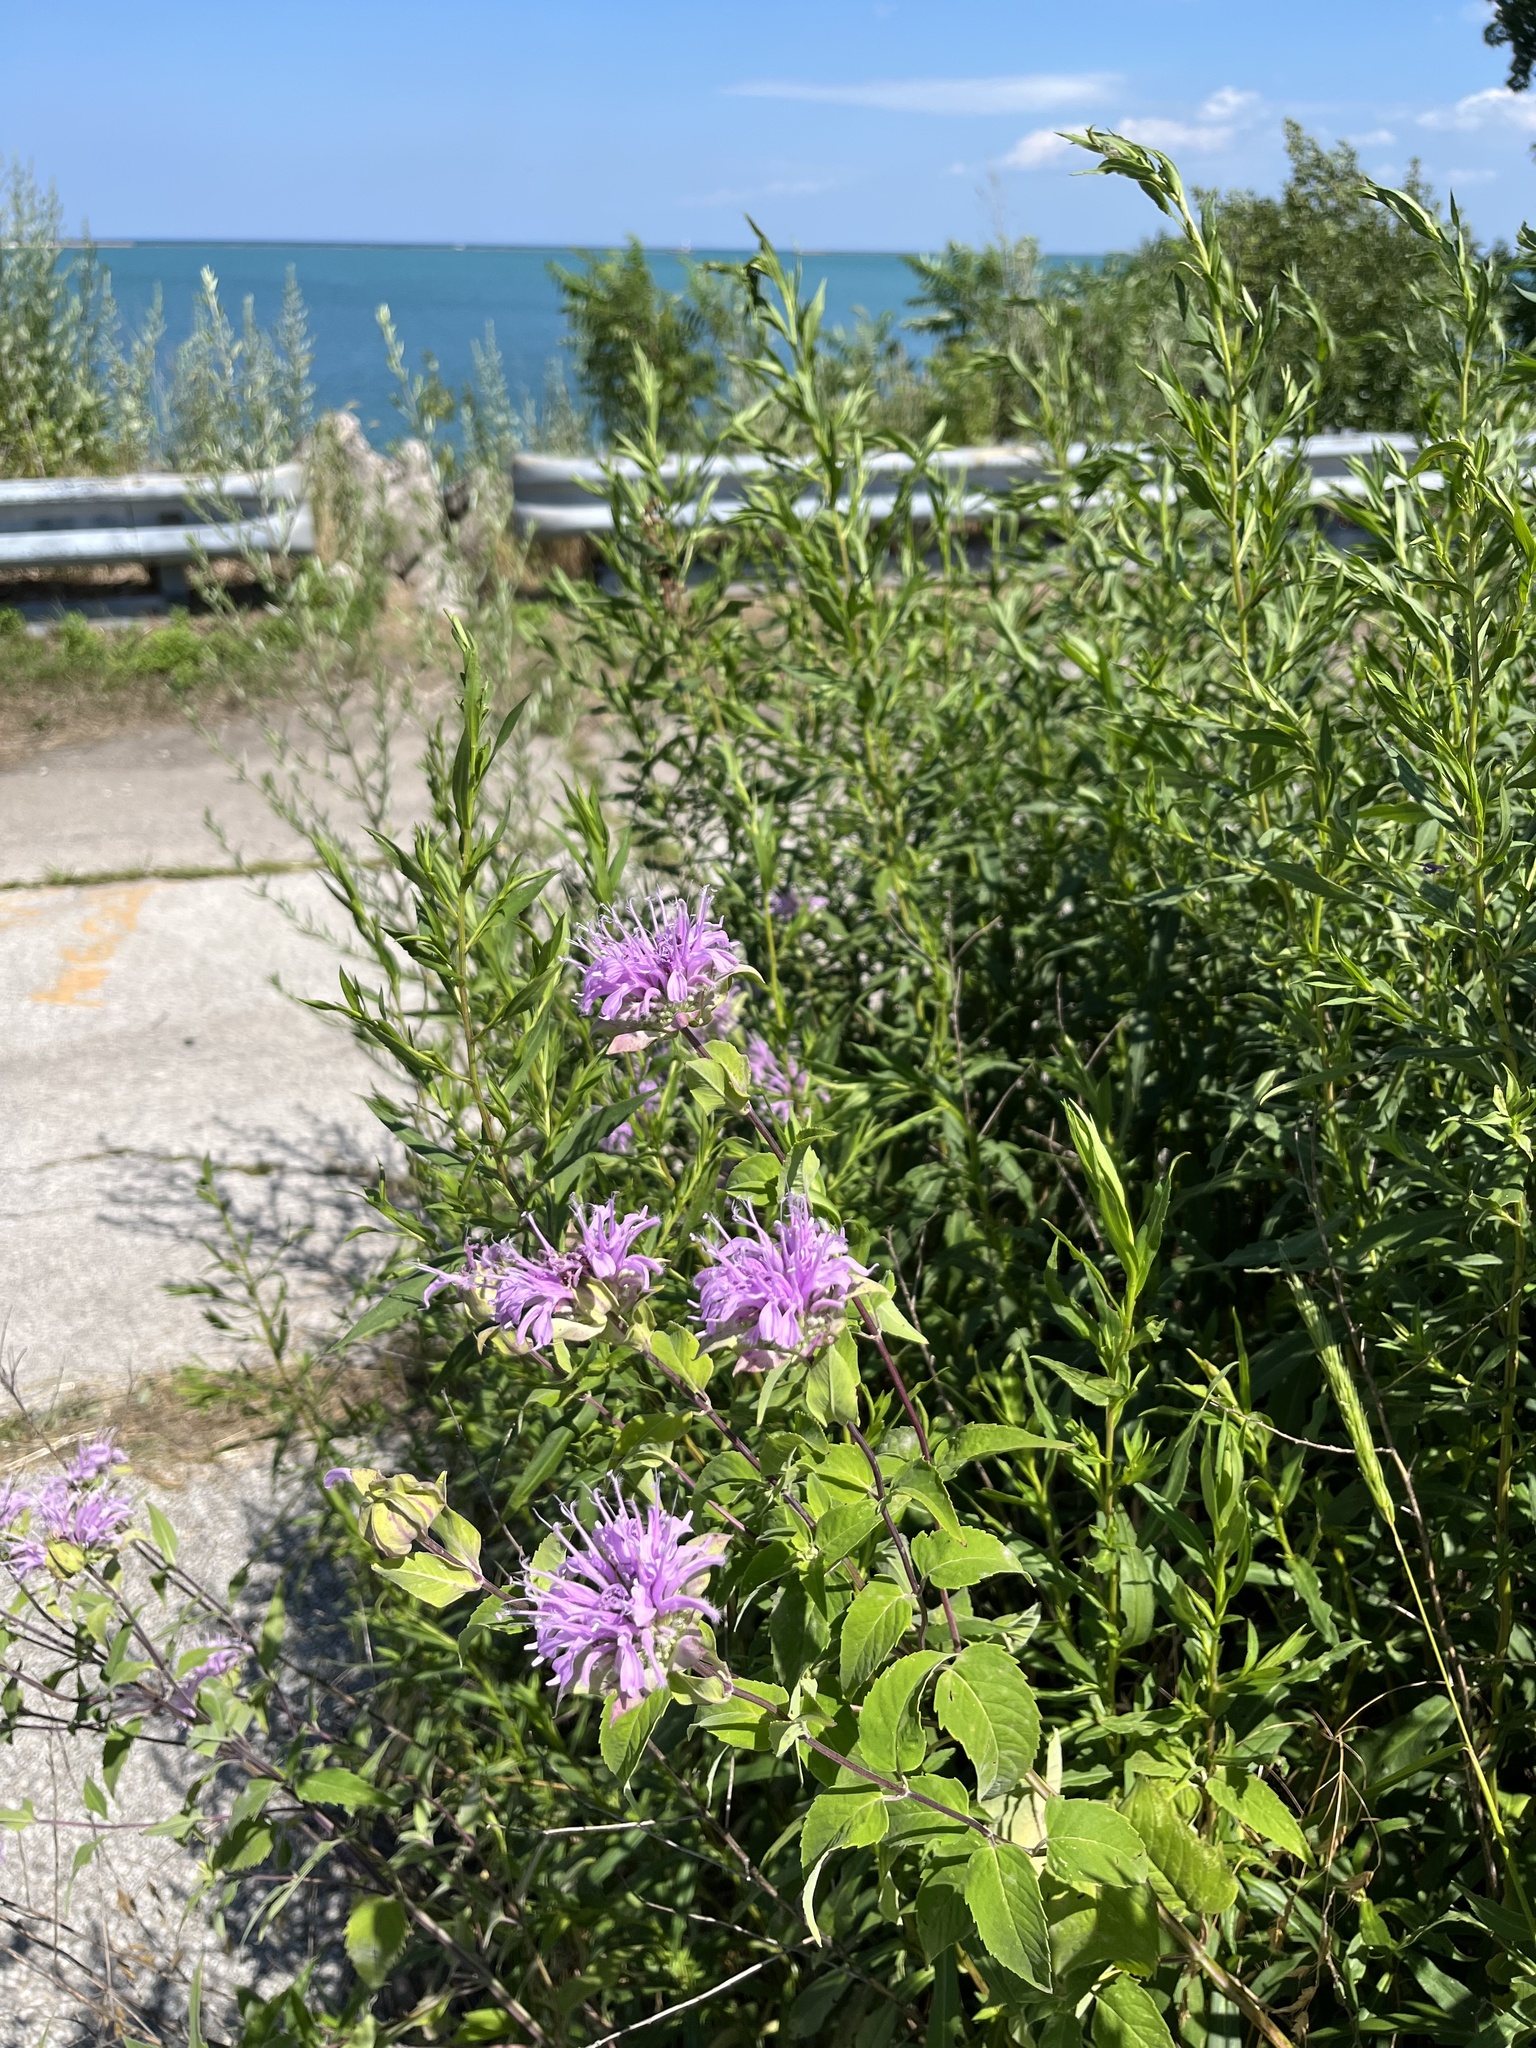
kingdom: Plantae
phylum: Tracheophyta
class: Magnoliopsida
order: Lamiales
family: Lamiaceae
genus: Monarda
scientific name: Monarda fistulosa
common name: Purple beebalm
